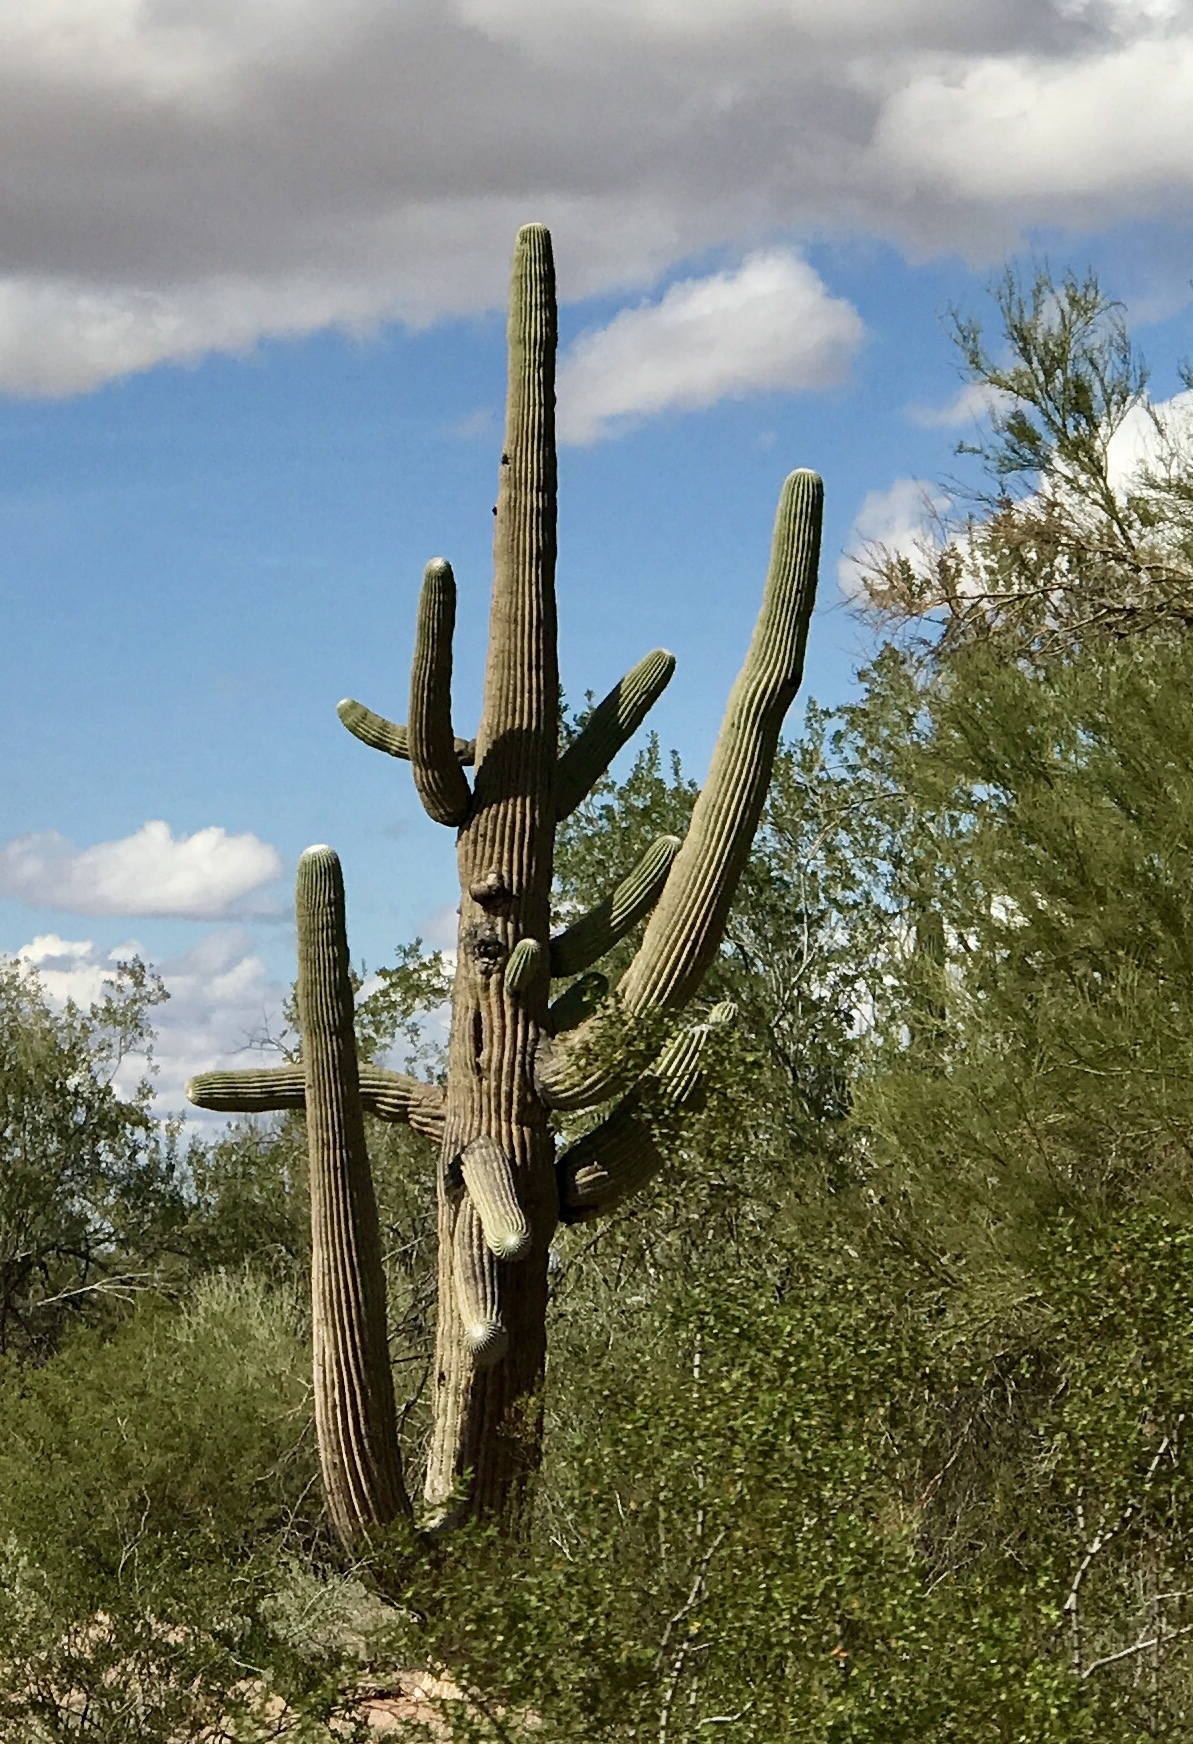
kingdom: Plantae
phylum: Tracheophyta
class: Magnoliopsida
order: Caryophyllales
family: Cactaceae
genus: Carnegiea
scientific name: Carnegiea gigantea
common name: Saguaro
